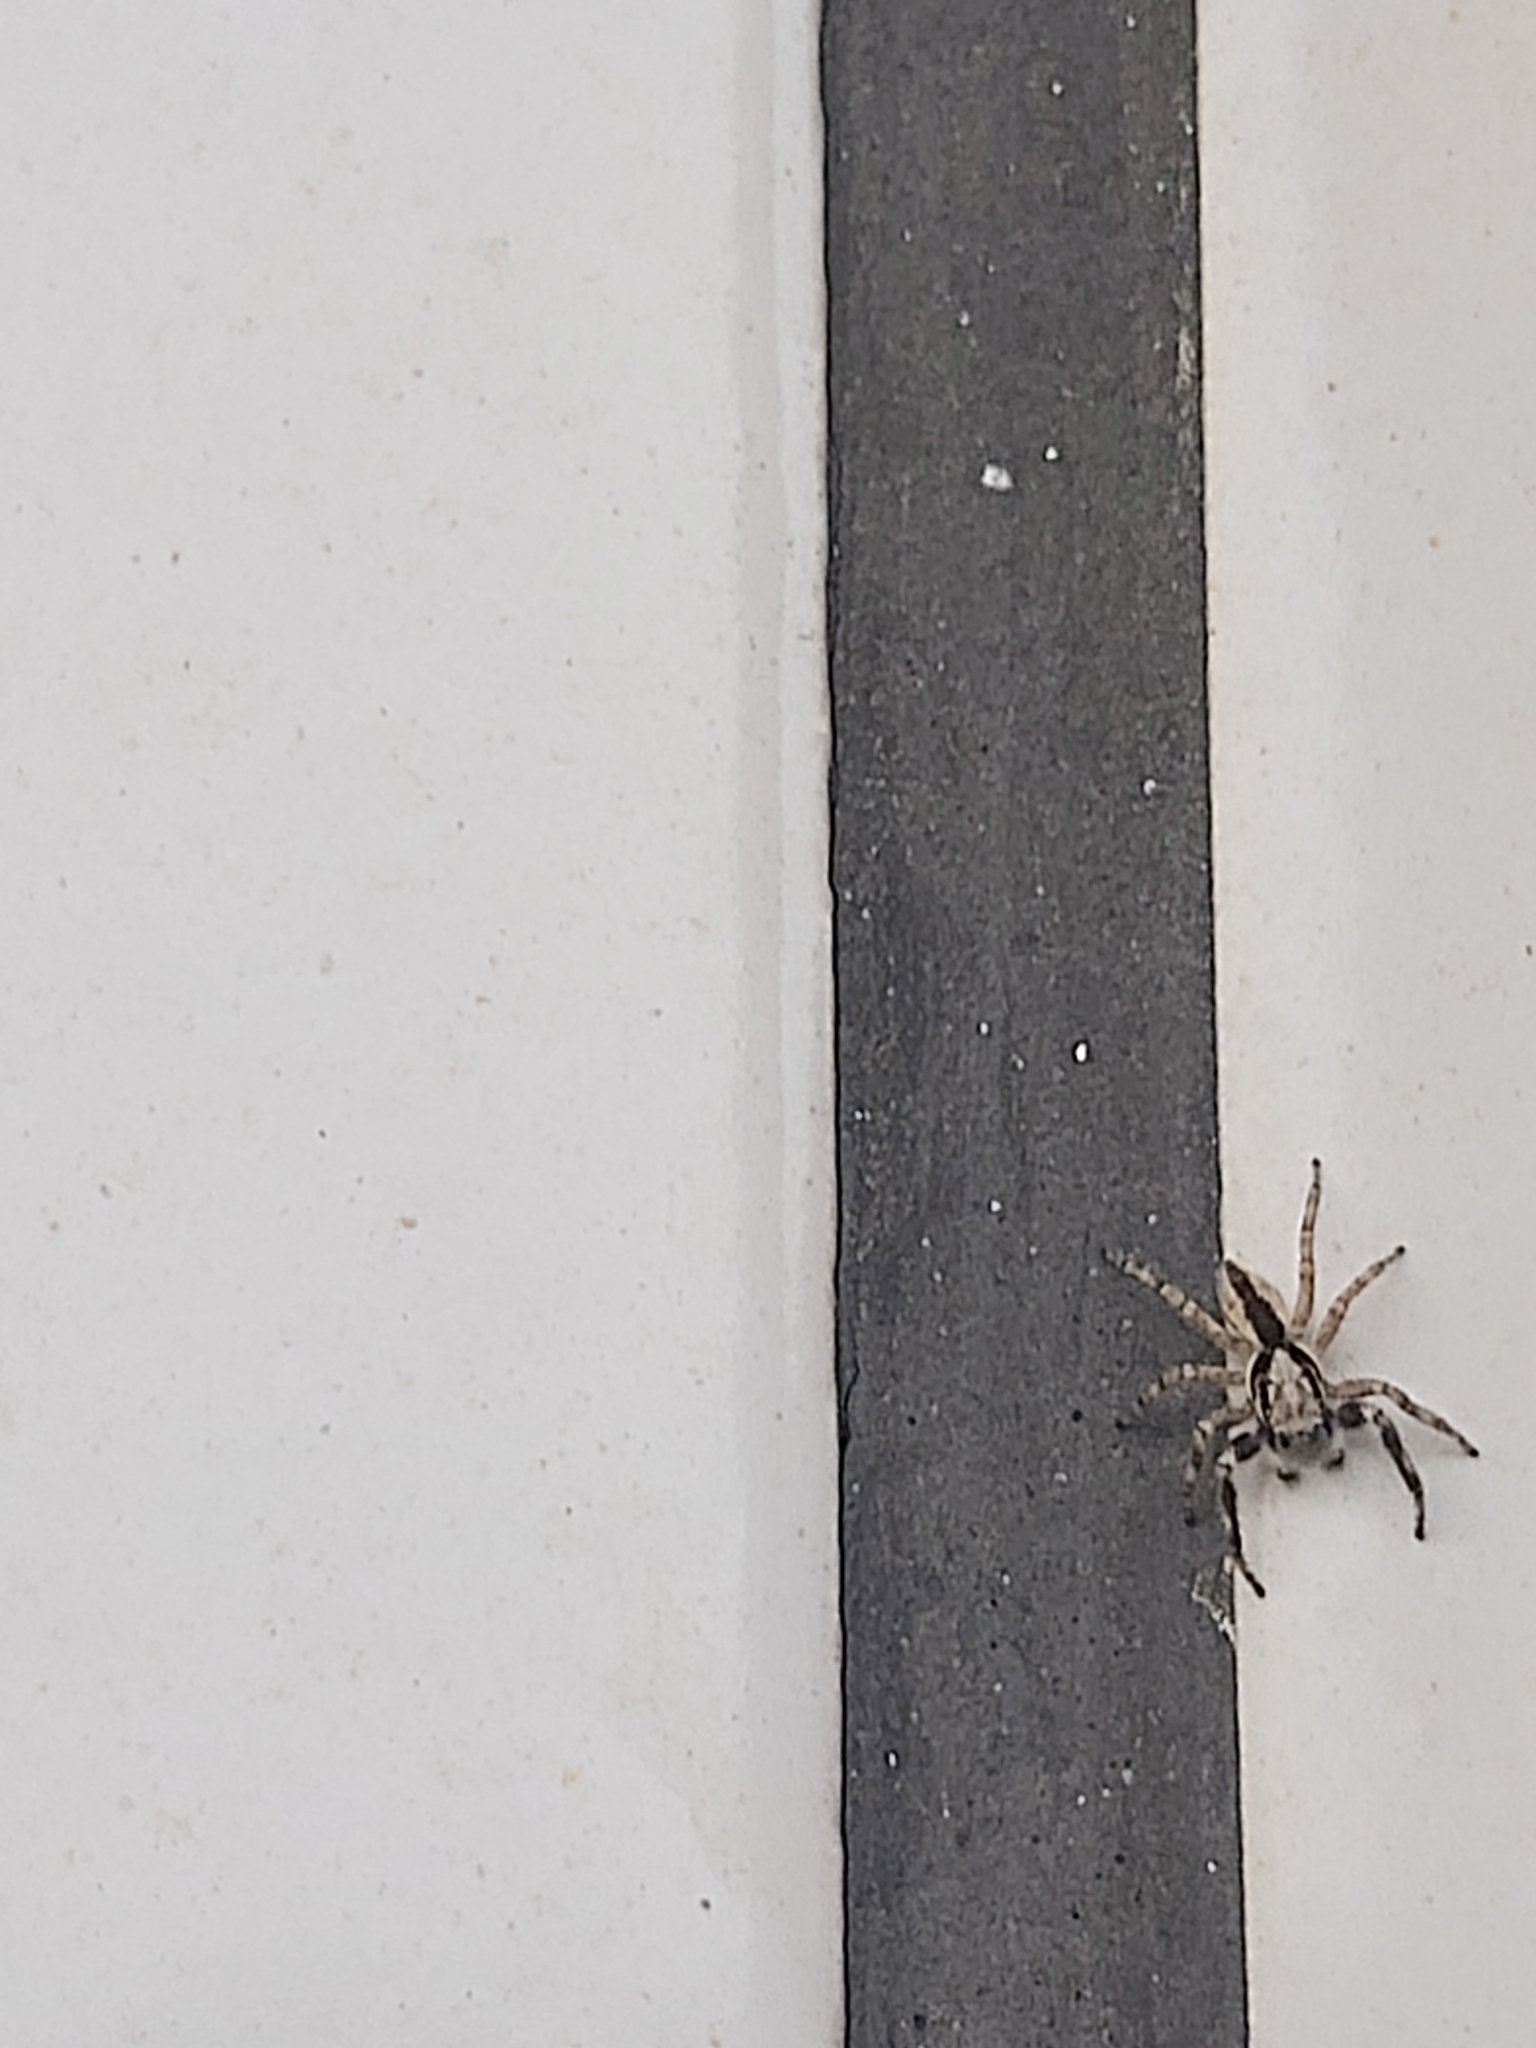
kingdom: Animalia
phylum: Arthropoda
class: Arachnida
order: Araneae
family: Salticidae
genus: Menemerus
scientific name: Menemerus bivittatus
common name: Gray wall jumper
